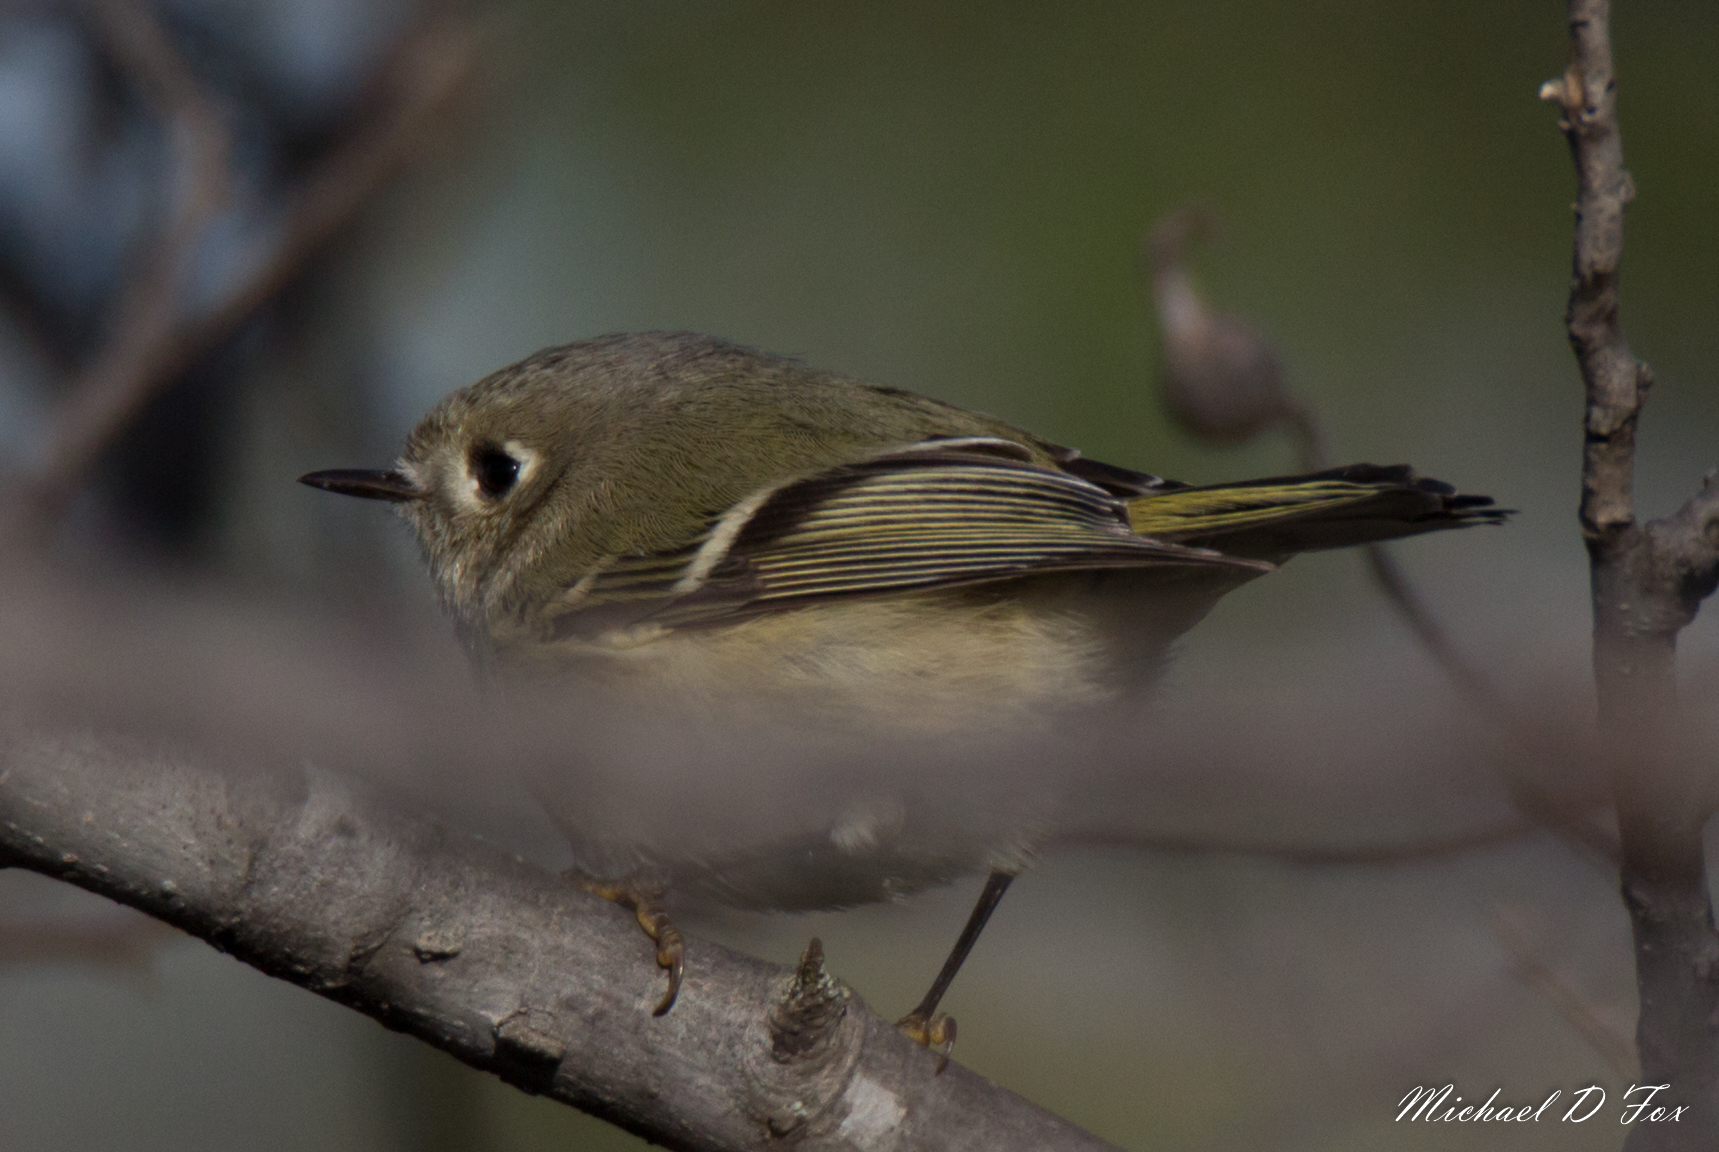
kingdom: Animalia
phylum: Chordata
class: Aves
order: Passeriformes
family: Regulidae
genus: Regulus
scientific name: Regulus calendula
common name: Ruby-crowned kinglet
